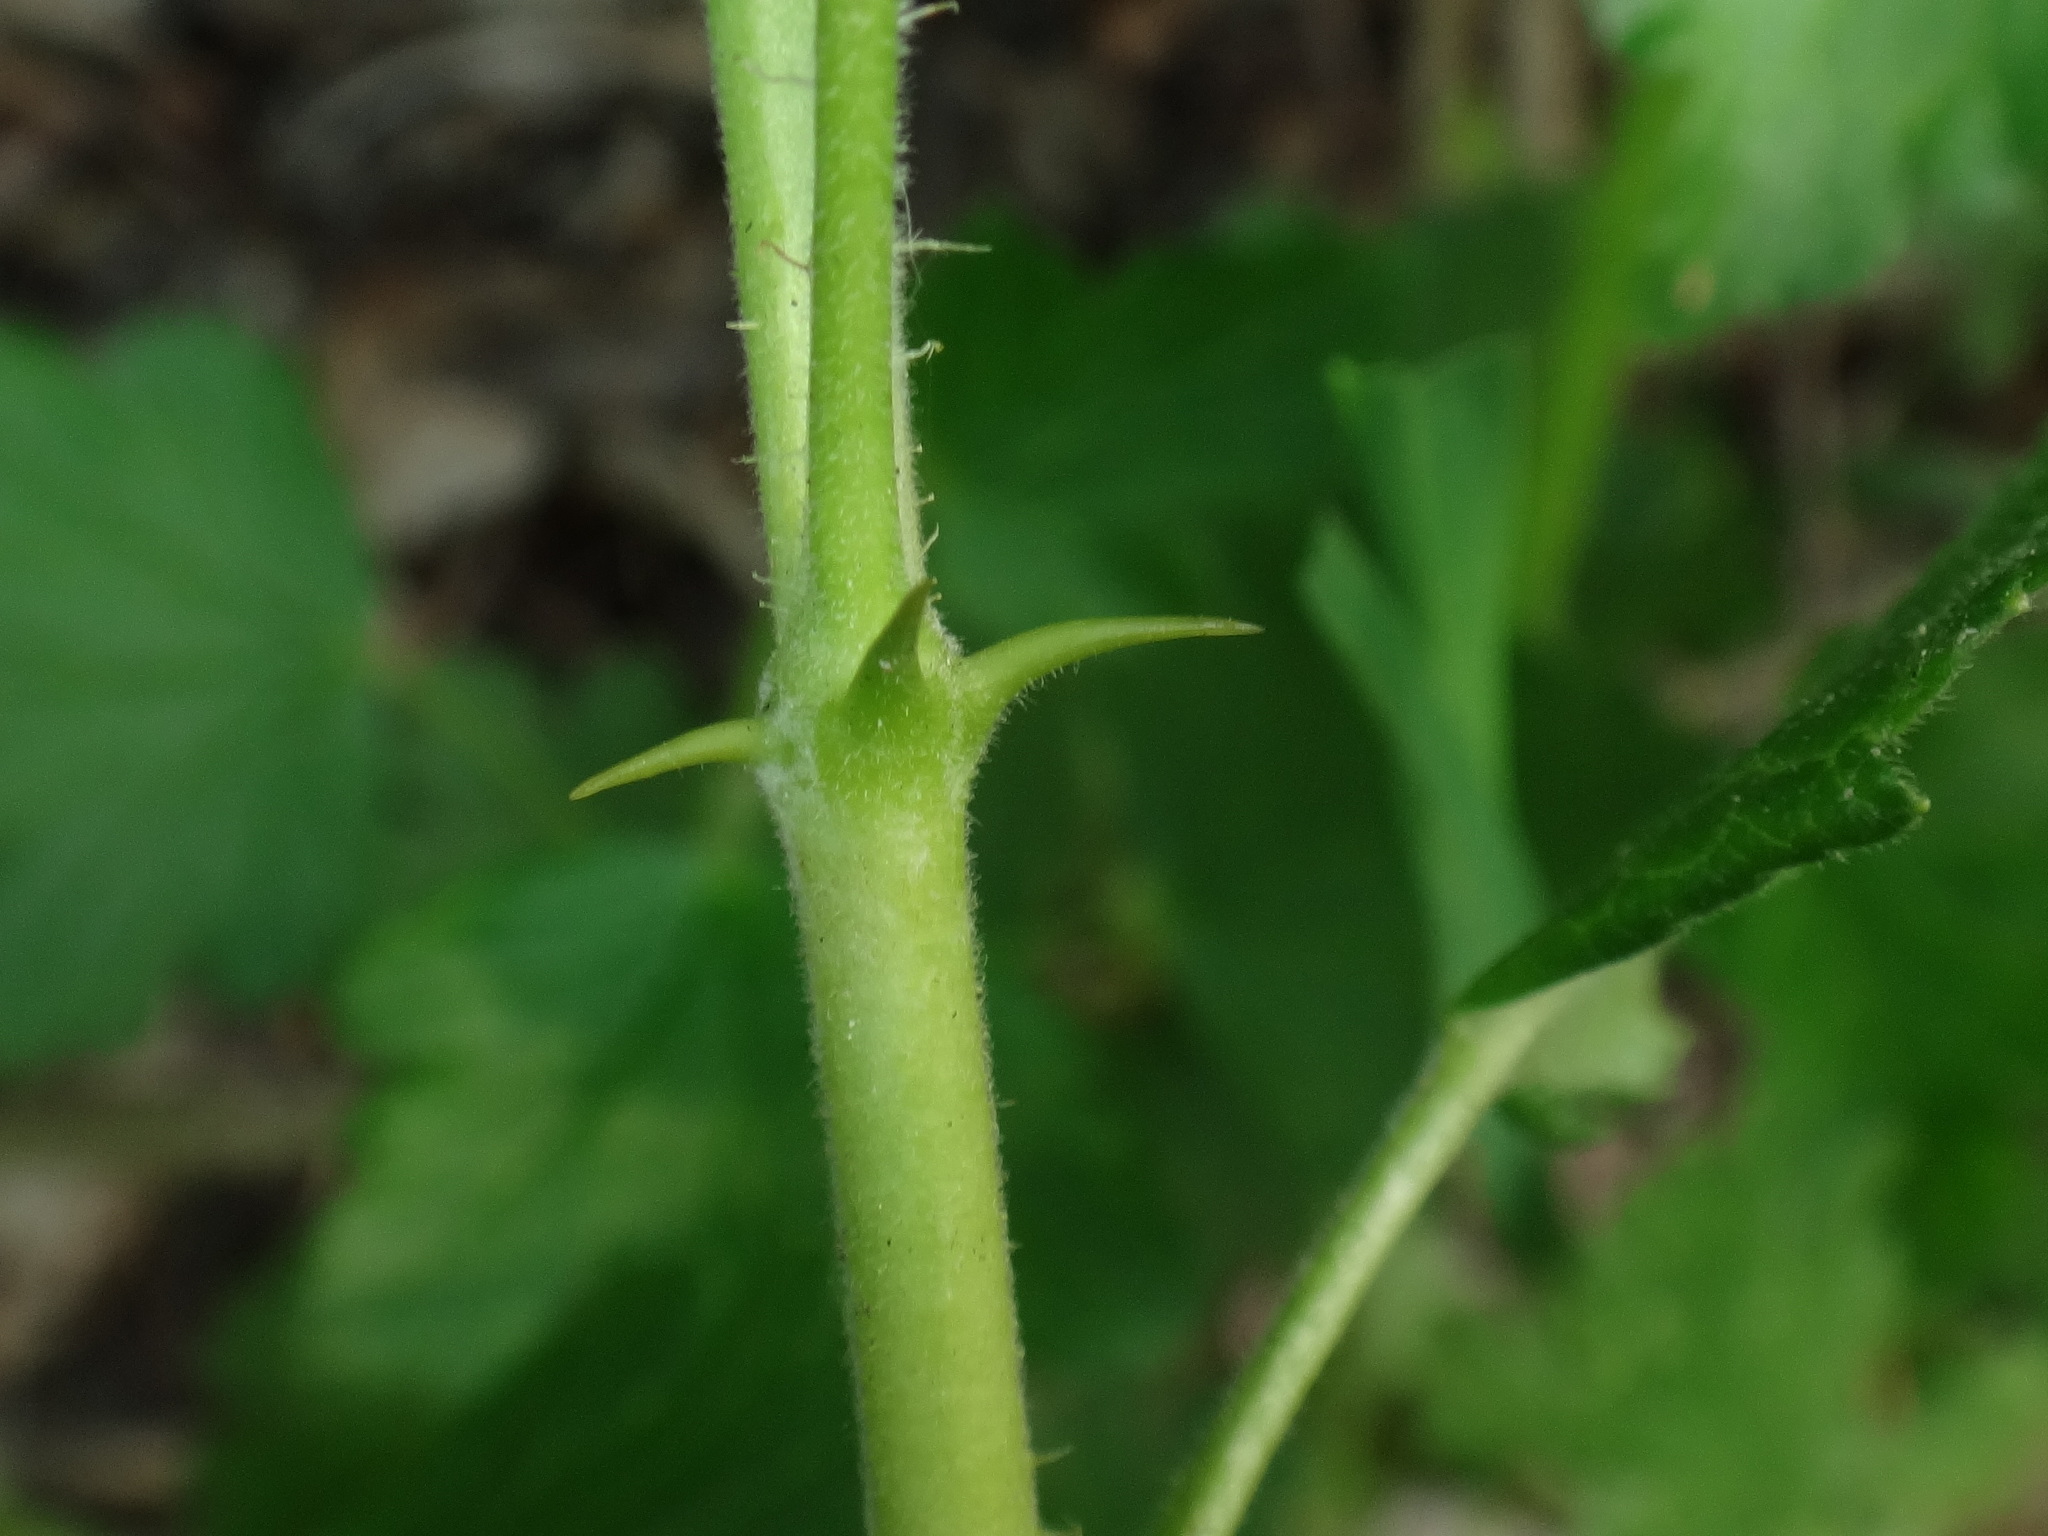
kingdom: Plantae
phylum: Tracheophyta
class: Magnoliopsida
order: Saxifragales
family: Grossulariaceae
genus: Ribes
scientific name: Ribes uva-crispa
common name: Gooseberry
